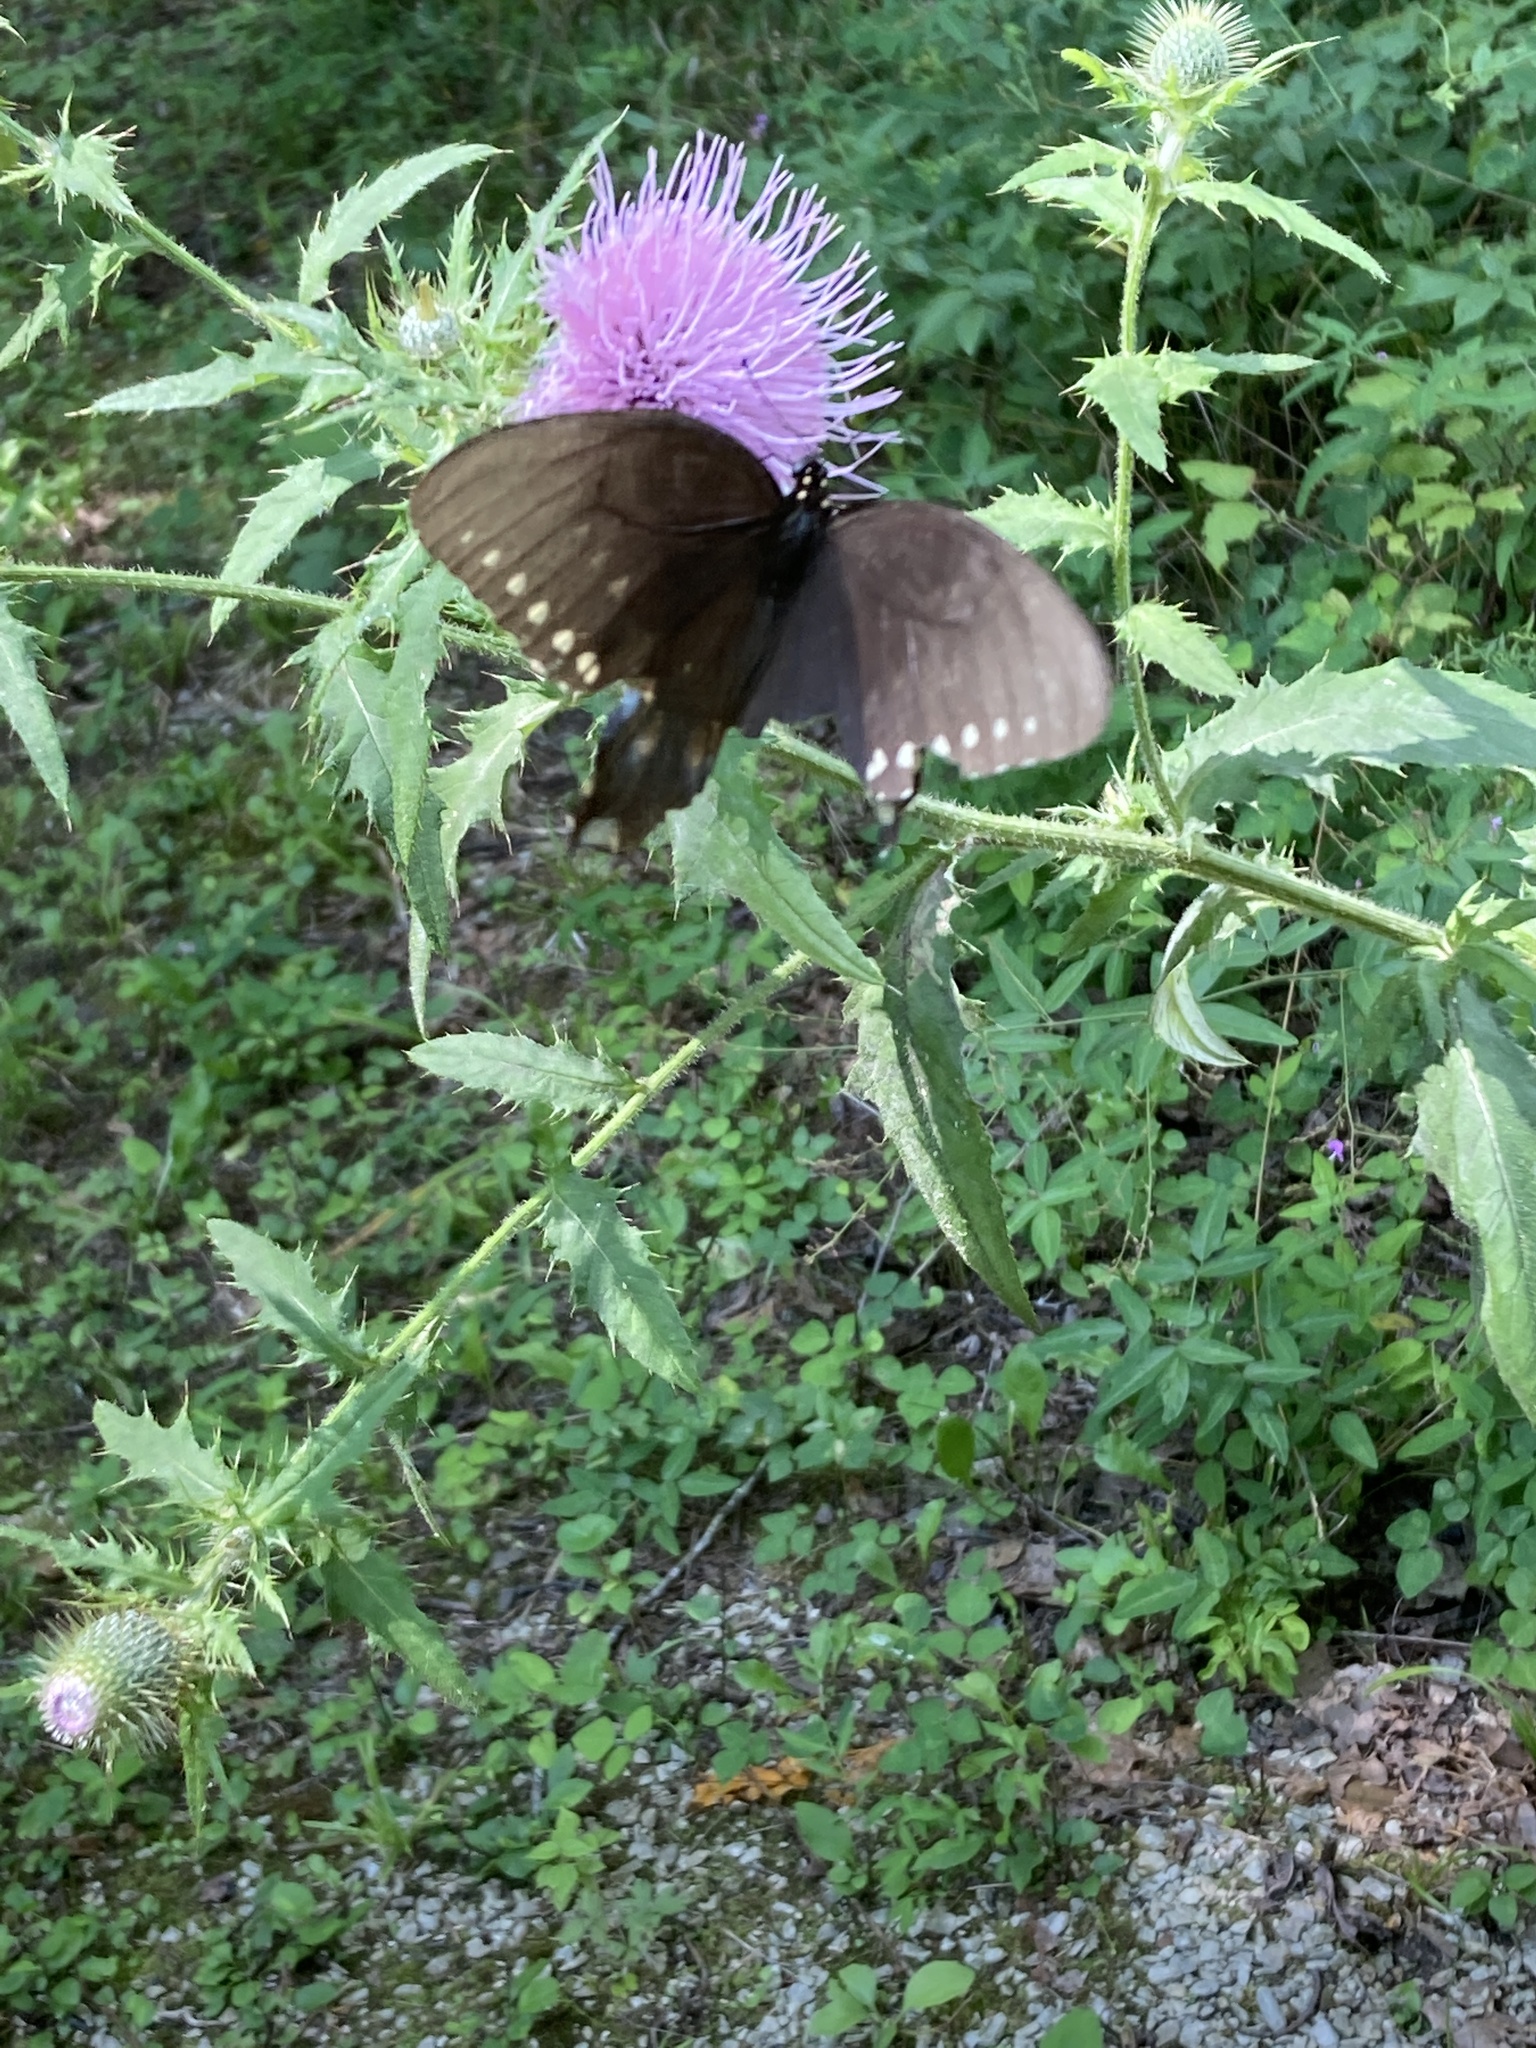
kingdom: Animalia
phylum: Arthropoda
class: Insecta
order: Lepidoptera
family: Papilionidae
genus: Papilio
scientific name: Papilio troilus
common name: Spicebush swallowtail
